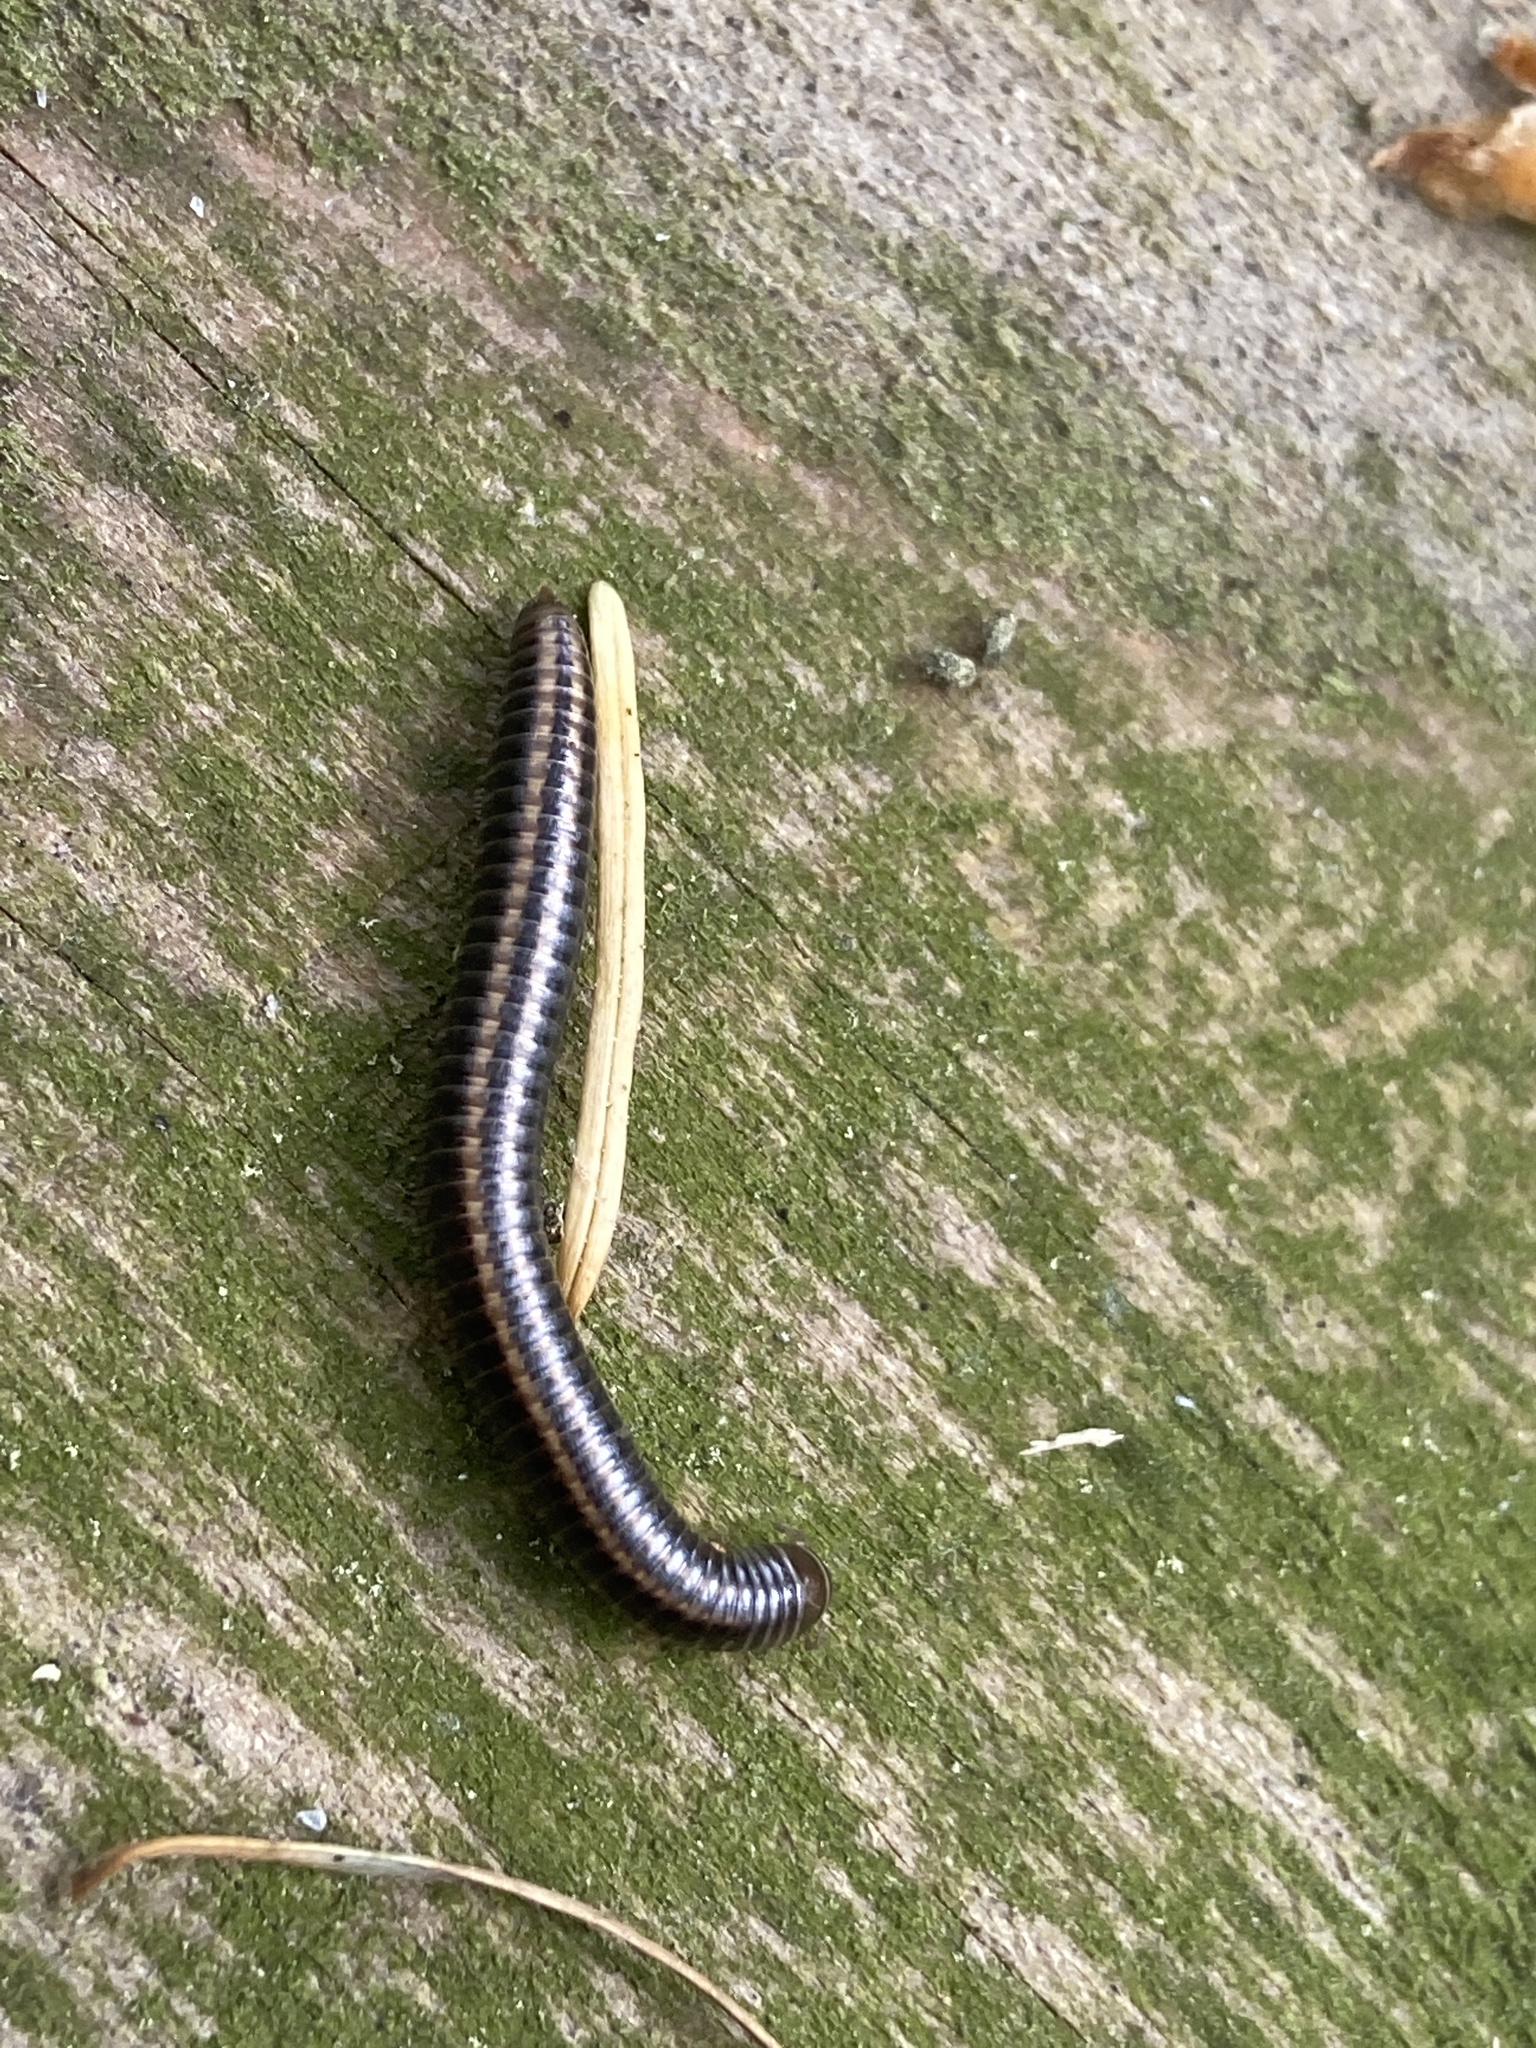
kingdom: Animalia
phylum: Arthropoda
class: Diplopoda
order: Julida
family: Julidae
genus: Ommatoiulus
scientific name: Ommatoiulus sabulosus
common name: Striped millipede
